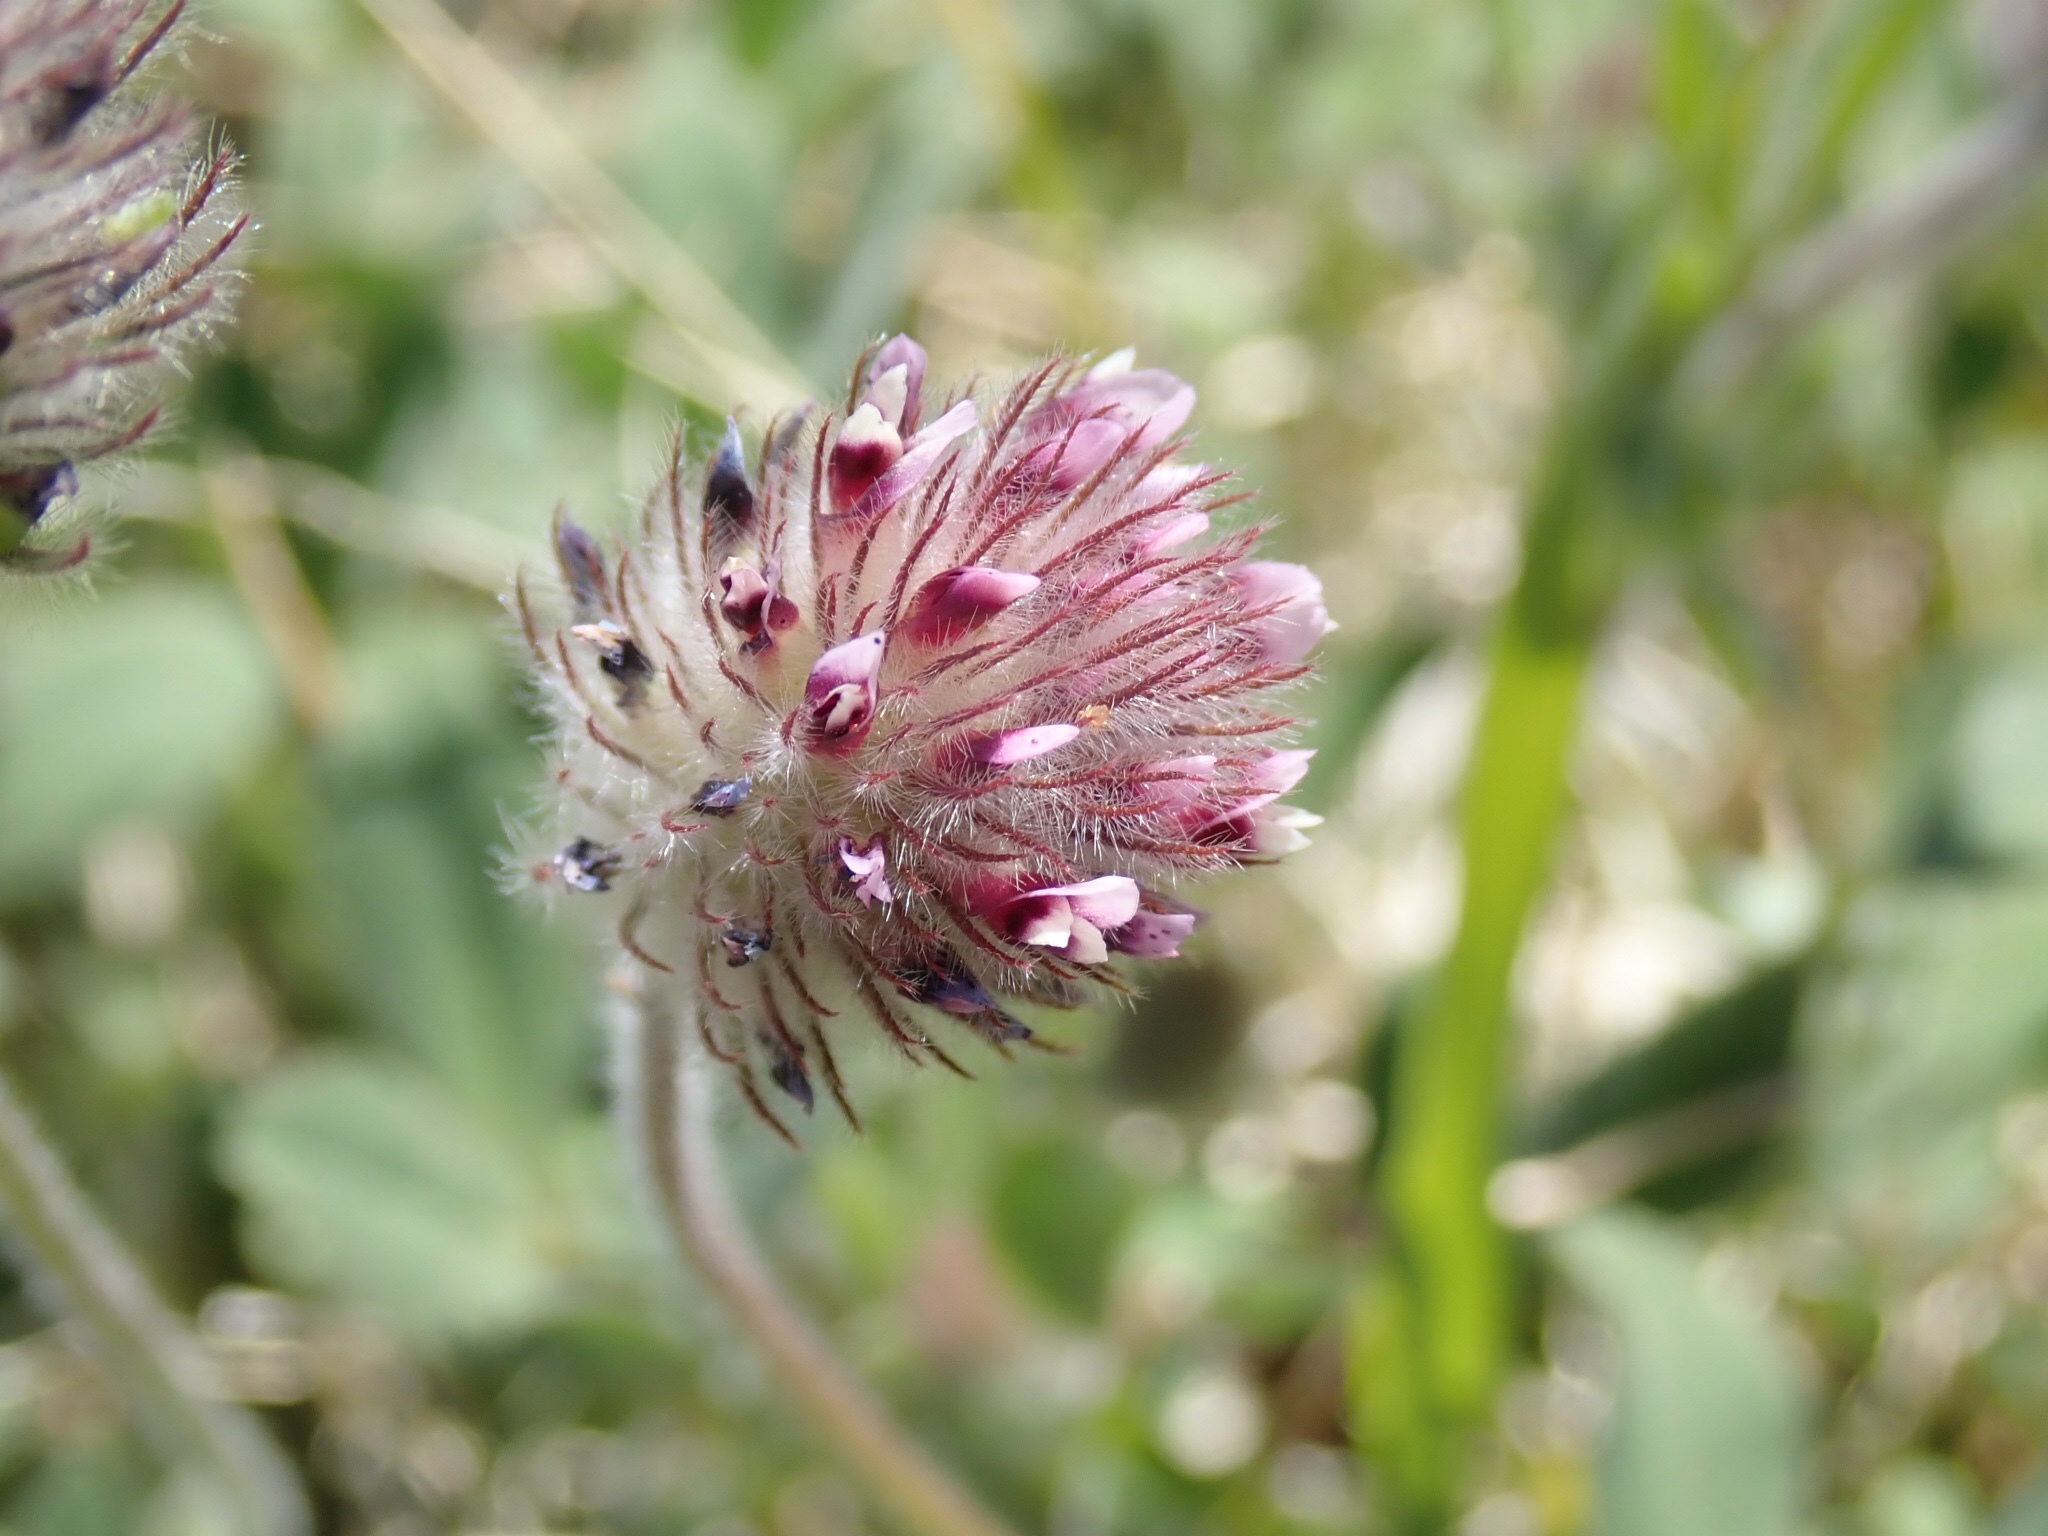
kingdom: Plantae
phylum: Tracheophyta
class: Magnoliopsida
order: Fabales
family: Fabaceae
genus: Trifolium
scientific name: Trifolium albopurpureum
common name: Rancheria clover
